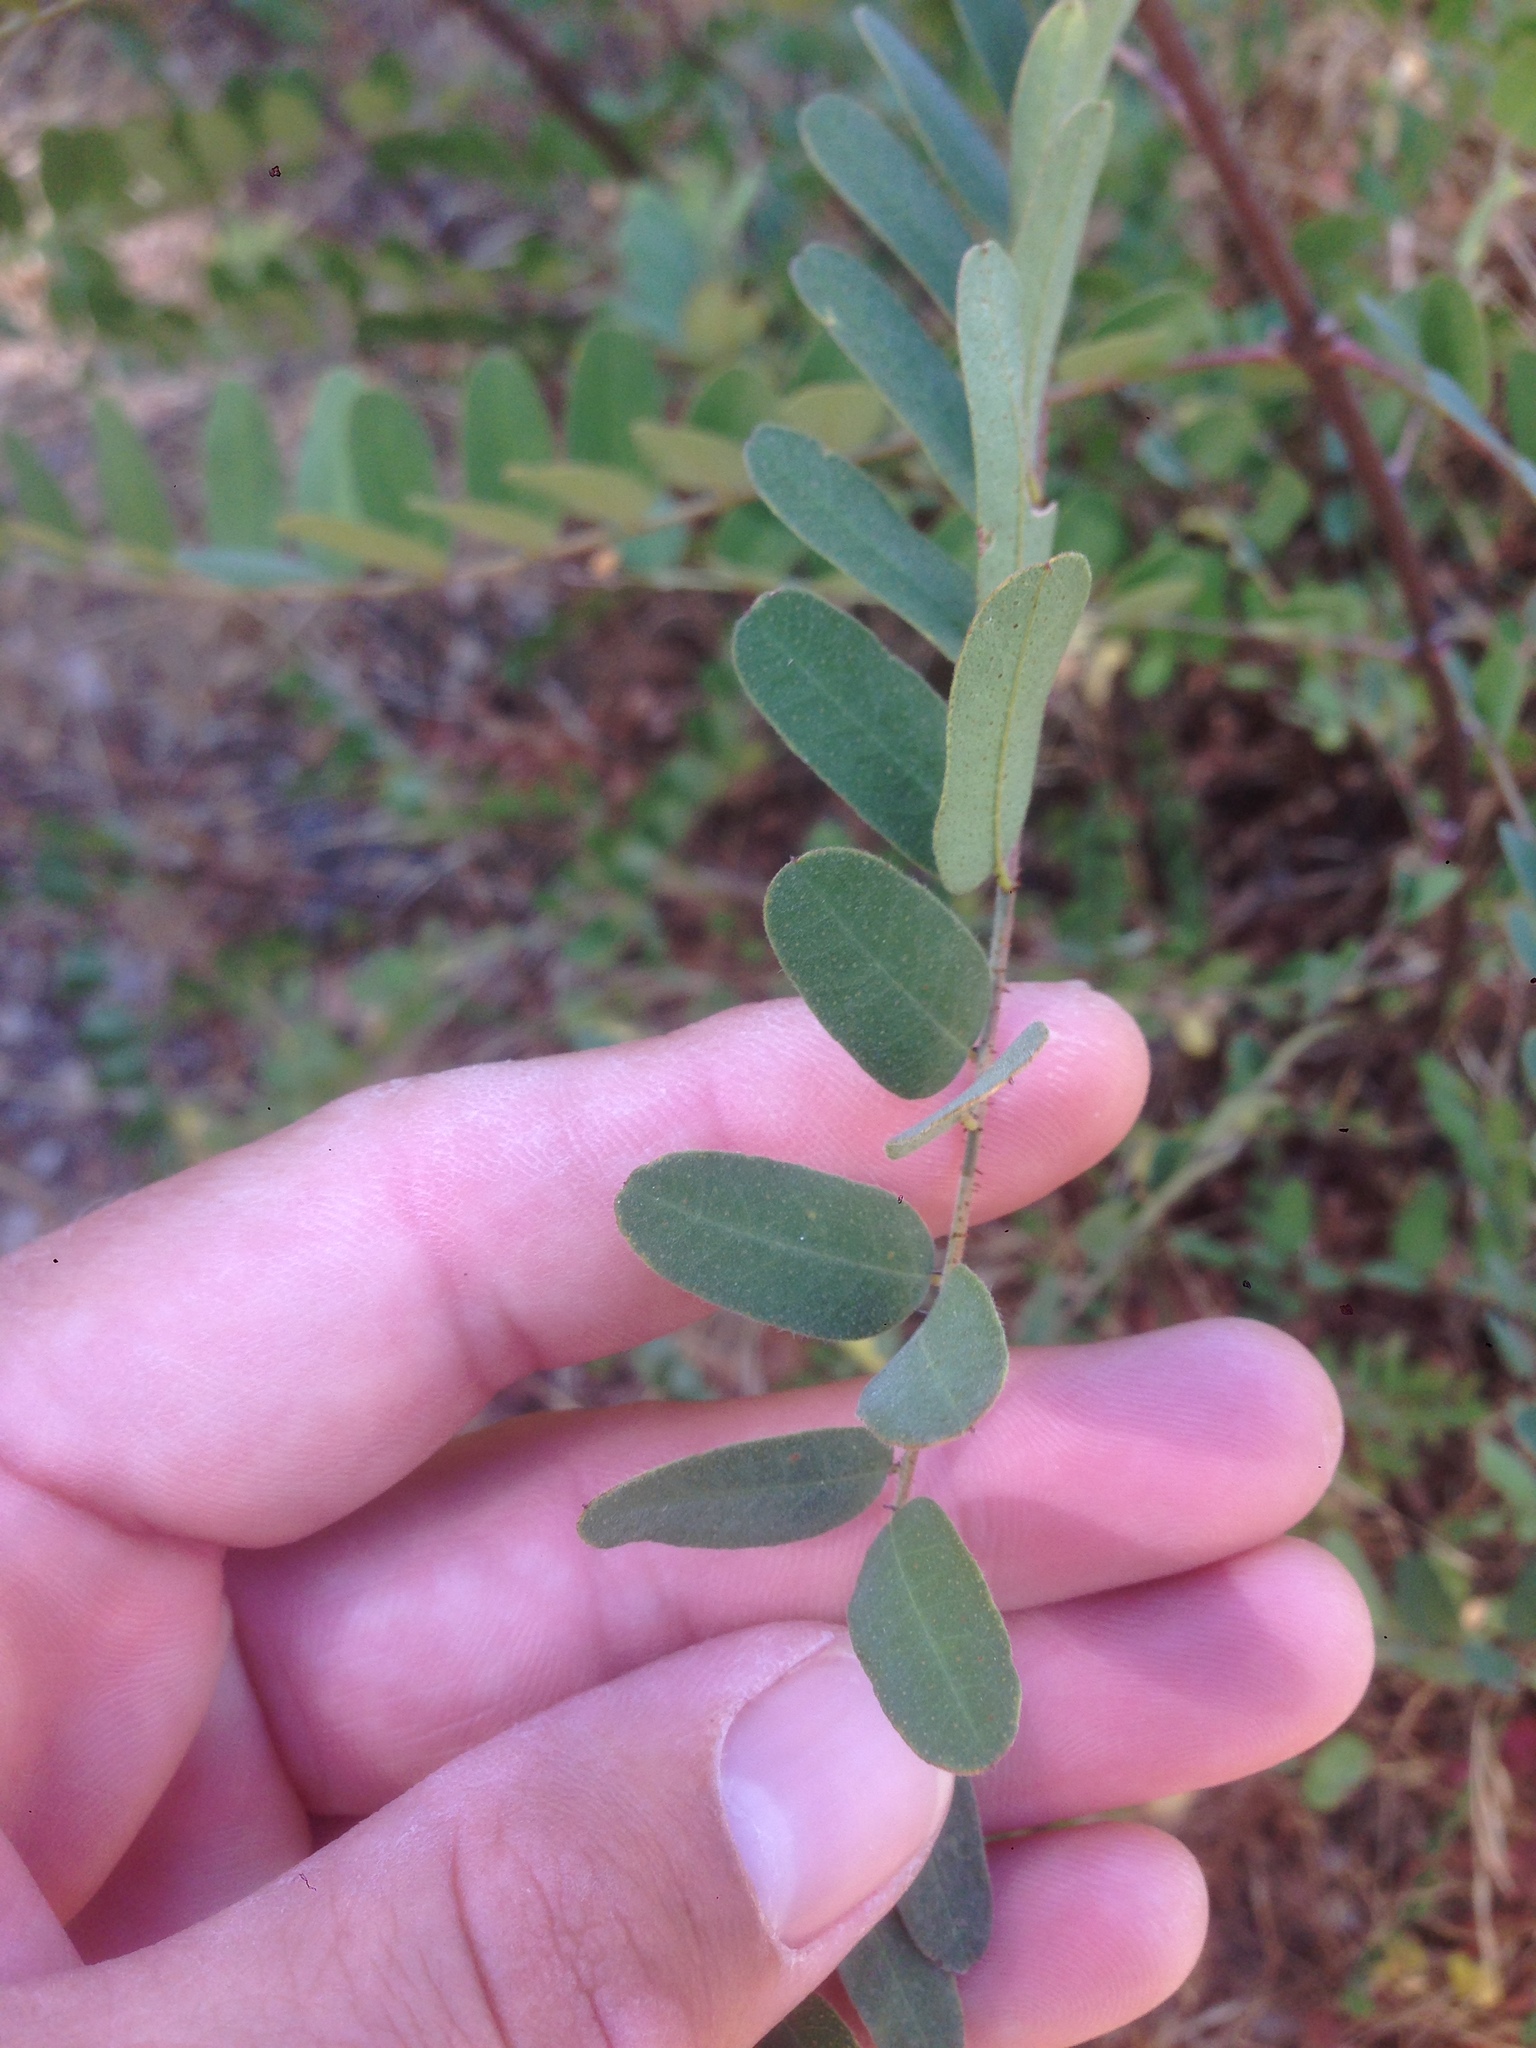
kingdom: Plantae
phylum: Tracheophyta
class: Magnoliopsida
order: Fabales
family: Fabaceae
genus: Amorpha
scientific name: Amorpha californica
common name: California indigobush
